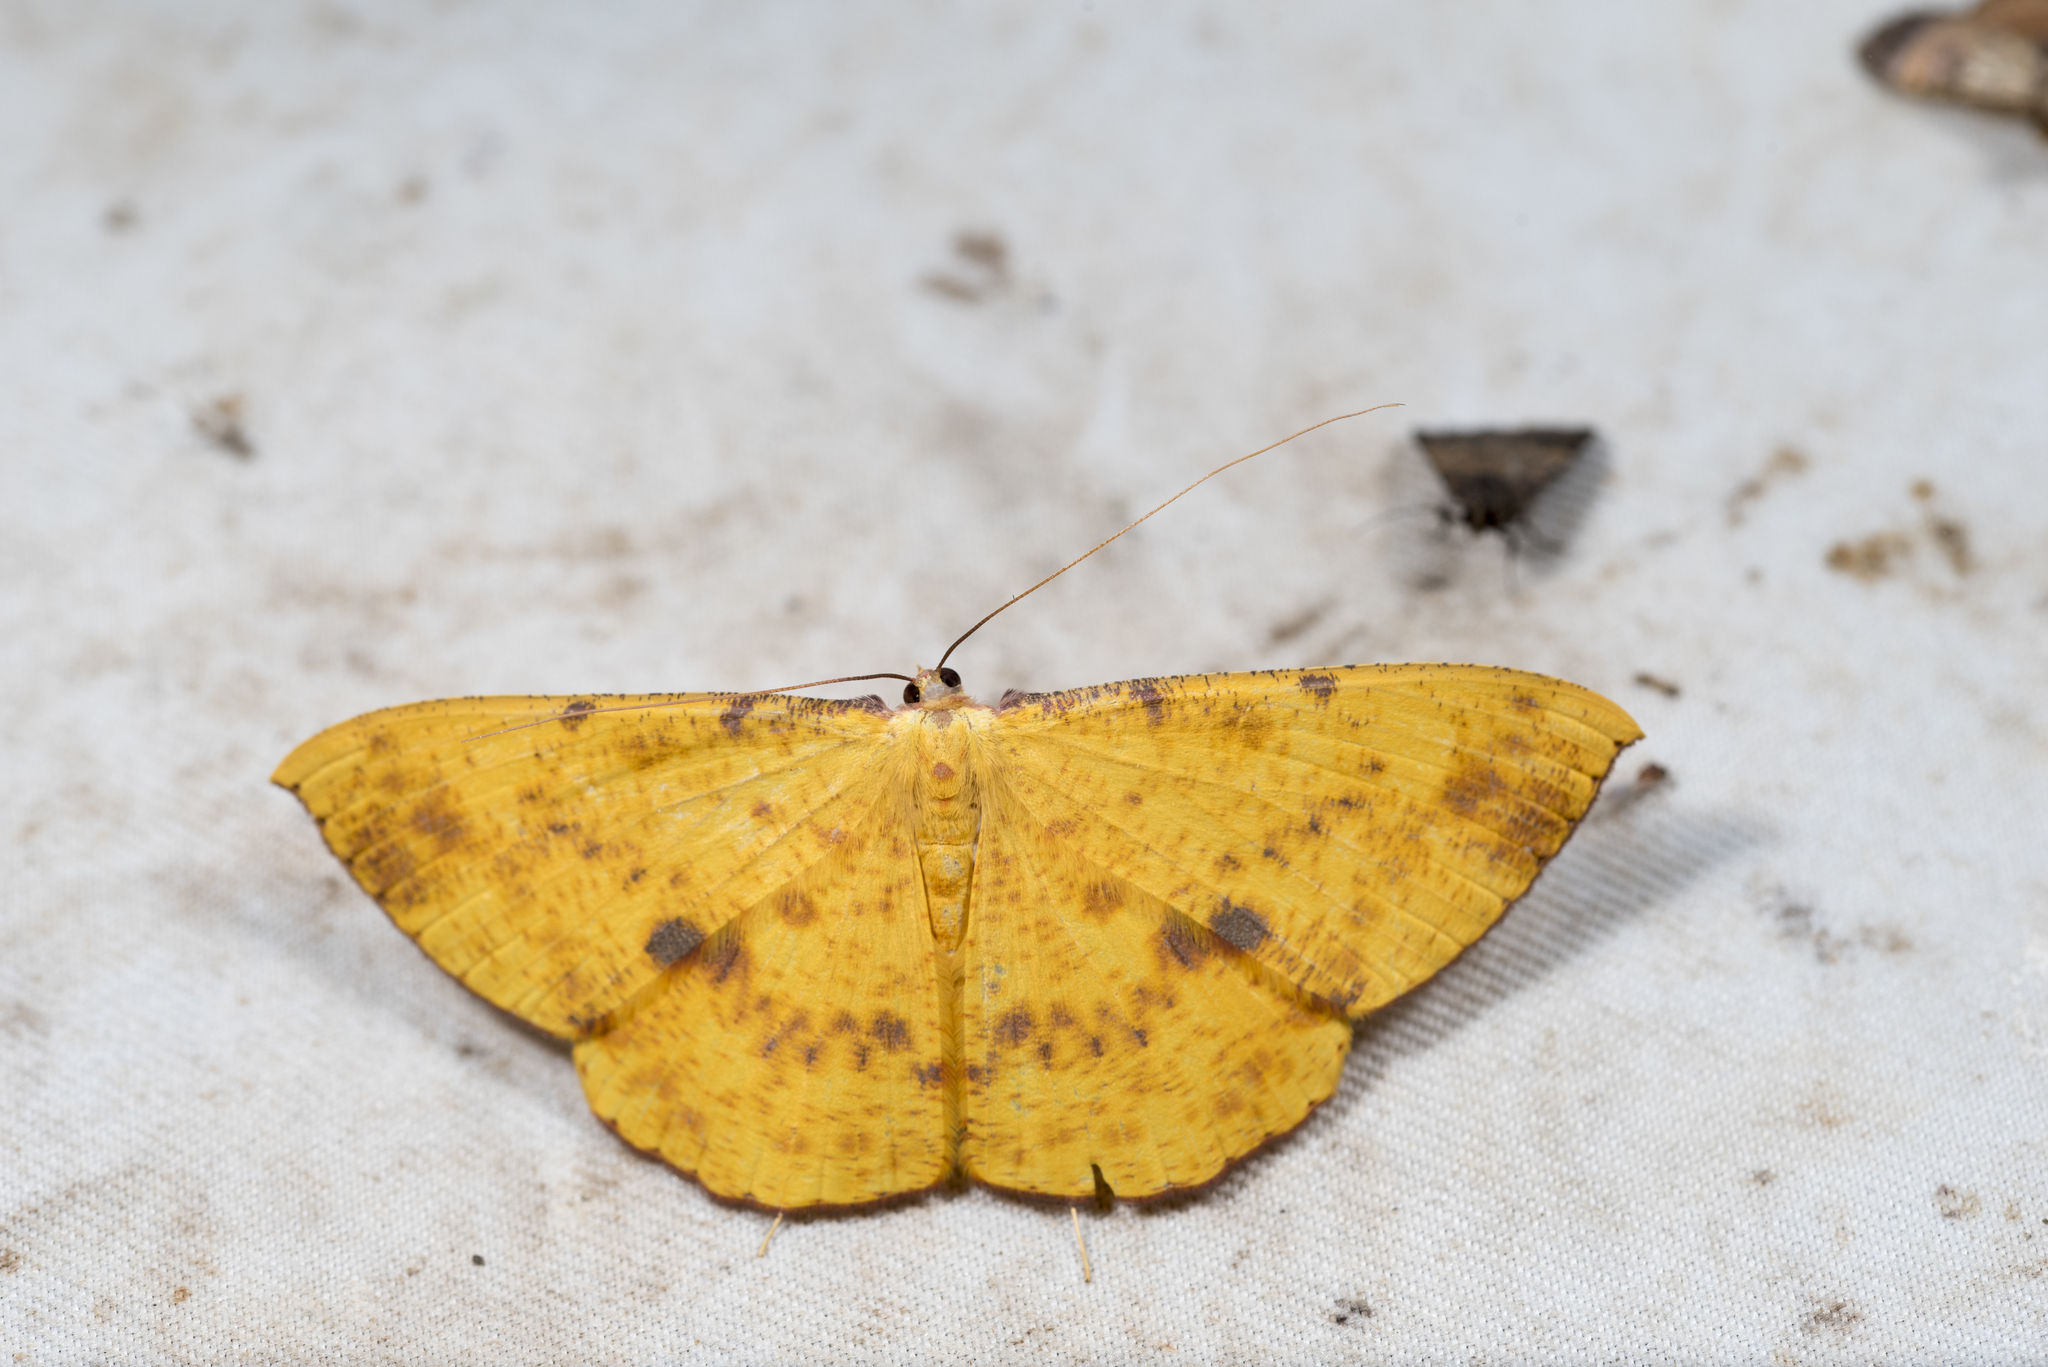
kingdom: Animalia
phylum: Arthropoda
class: Insecta
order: Lepidoptera
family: Geometridae
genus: Eumelea
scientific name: Eumelea ludovicata
